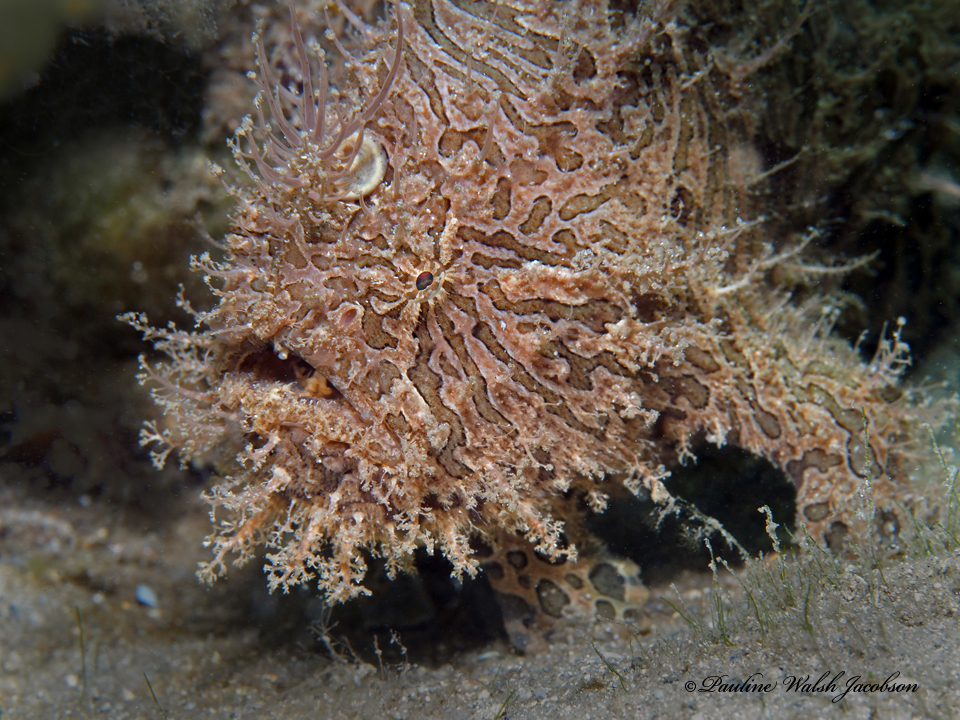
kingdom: Animalia
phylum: Chordata
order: Lophiiformes
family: Antennariidae
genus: Antennarius
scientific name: Antennarius striatus
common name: Striated frogfish
